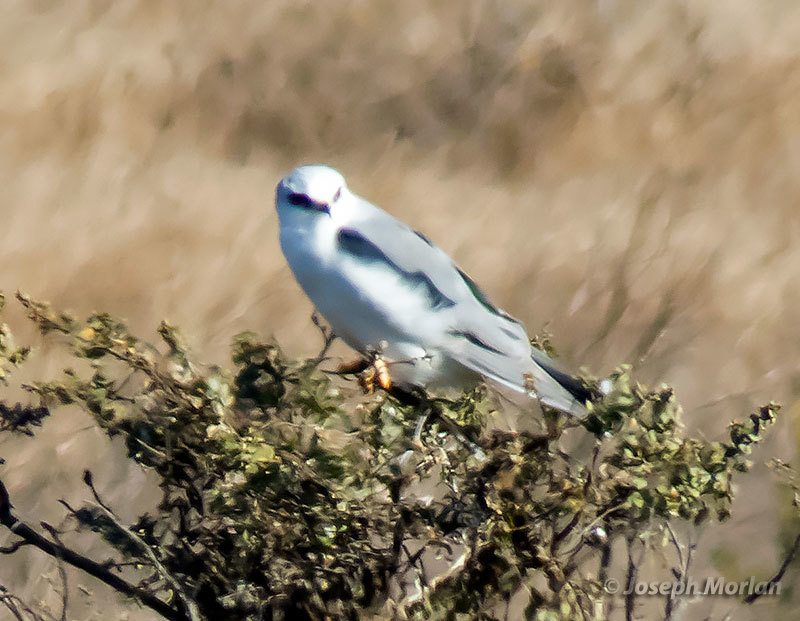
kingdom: Animalia
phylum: Chordata
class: Aves
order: Accipitriformes
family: Accipitridae
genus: Elanus
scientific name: Elanus leucurus
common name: White-tailed kite
